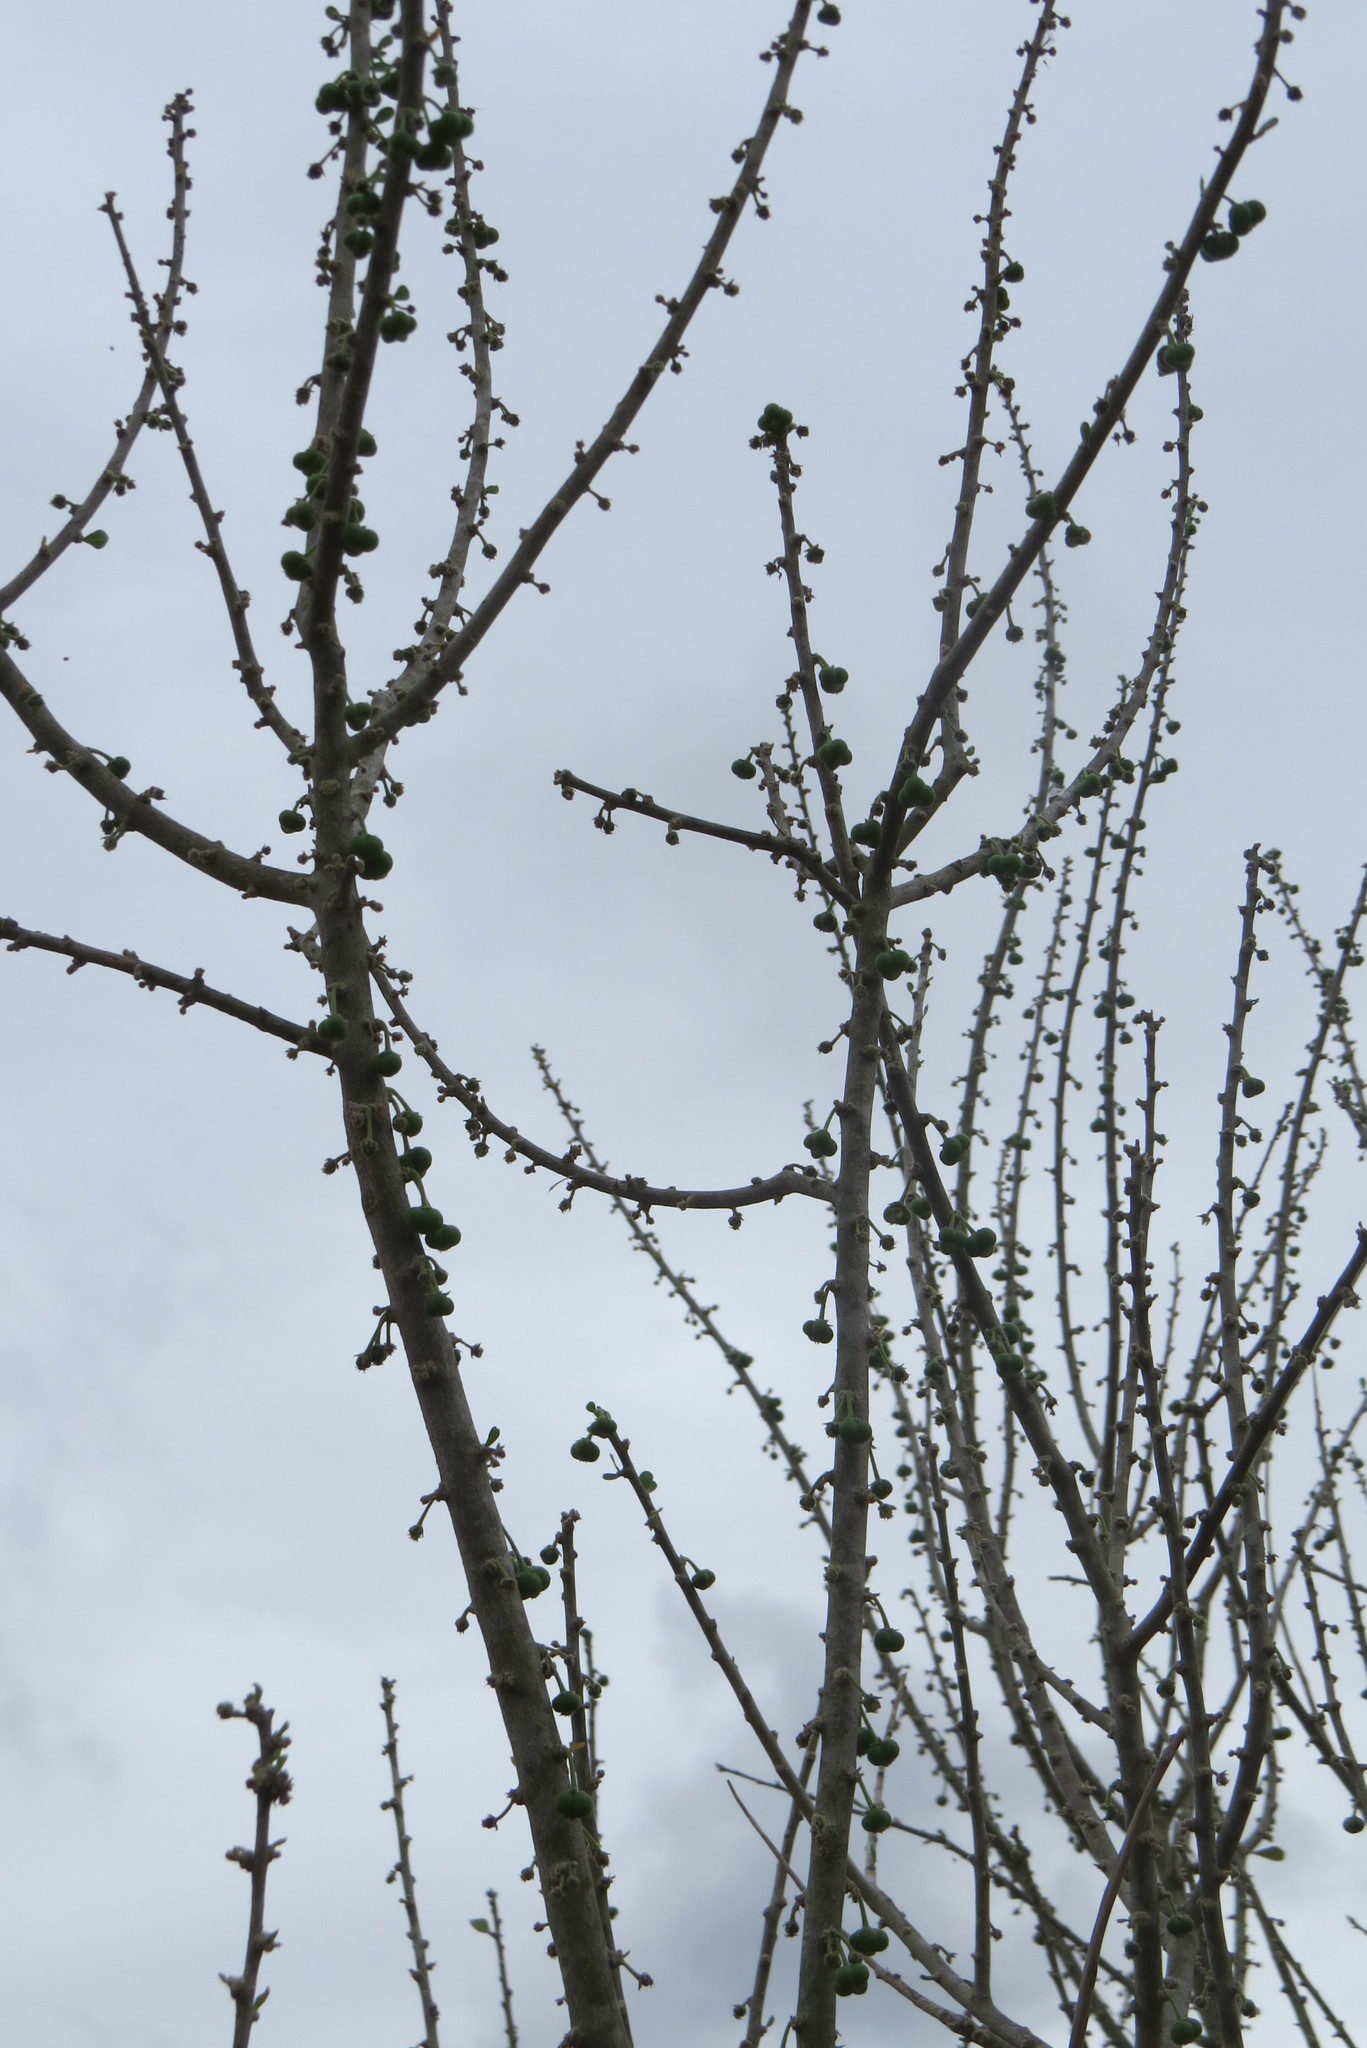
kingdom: Plantae
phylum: Tracheophyta
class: Magnoliopsida
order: Malpighiales
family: Euphorbiaceae
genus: Adelia
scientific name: Adelia vaseyi
